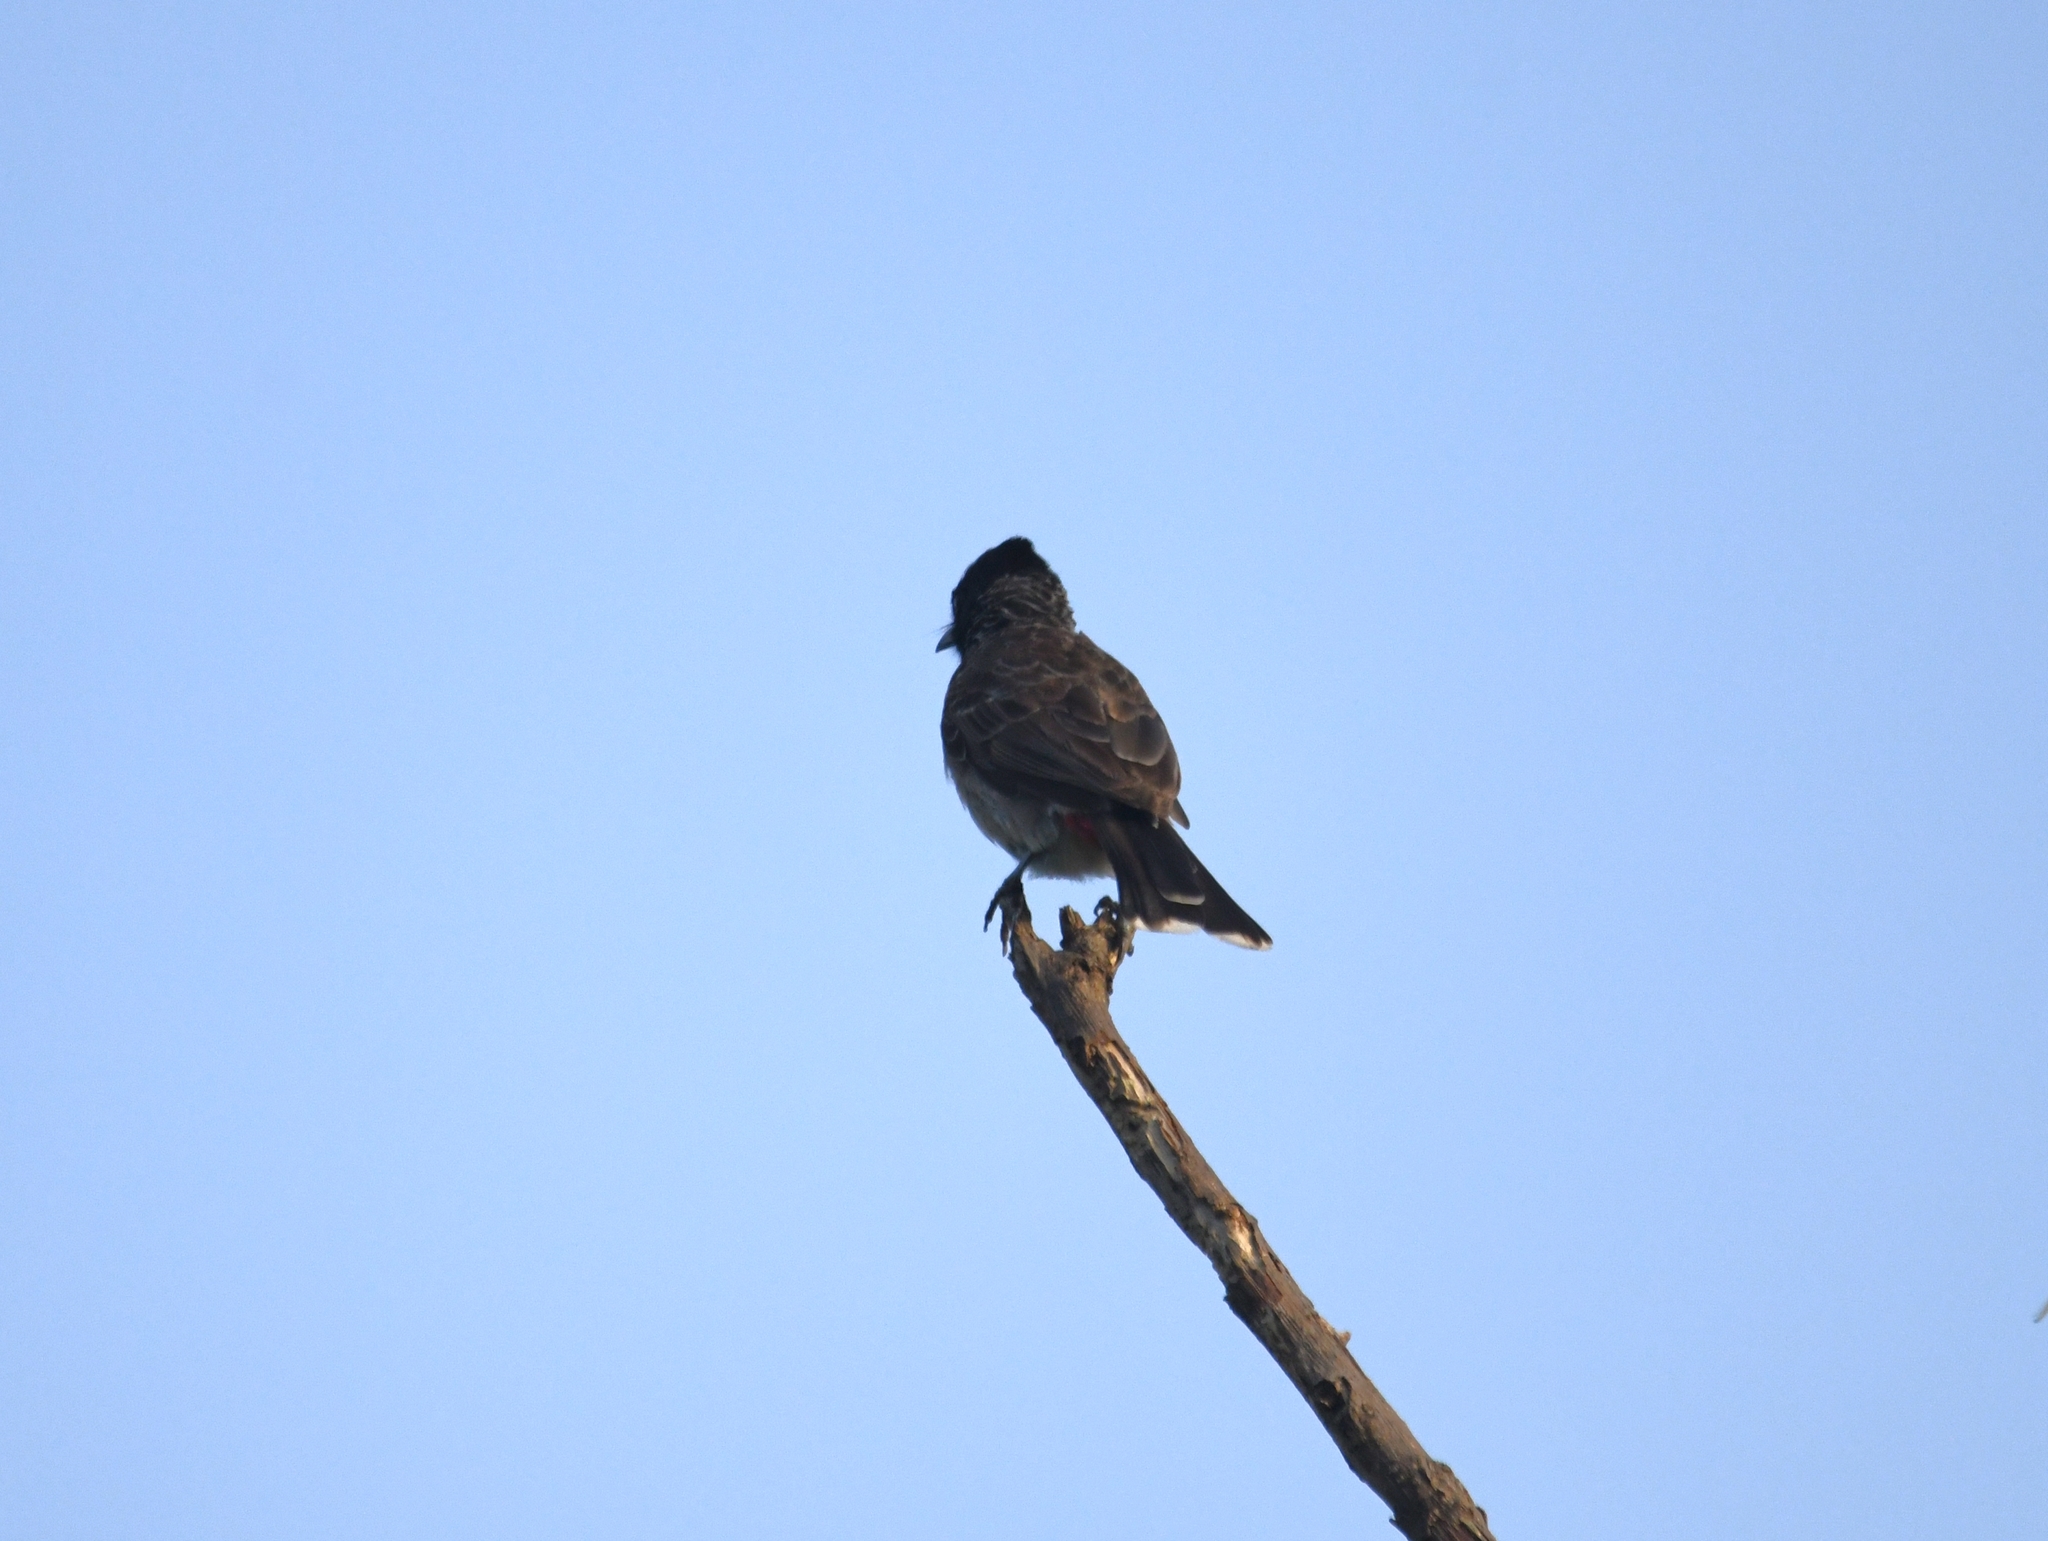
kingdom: Animalia
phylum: Chordata
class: Aves
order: Passeriformes
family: Pycnonotidae
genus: Pycnonotus
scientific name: Pycnonotus cafer
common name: Red-vented bulbul
